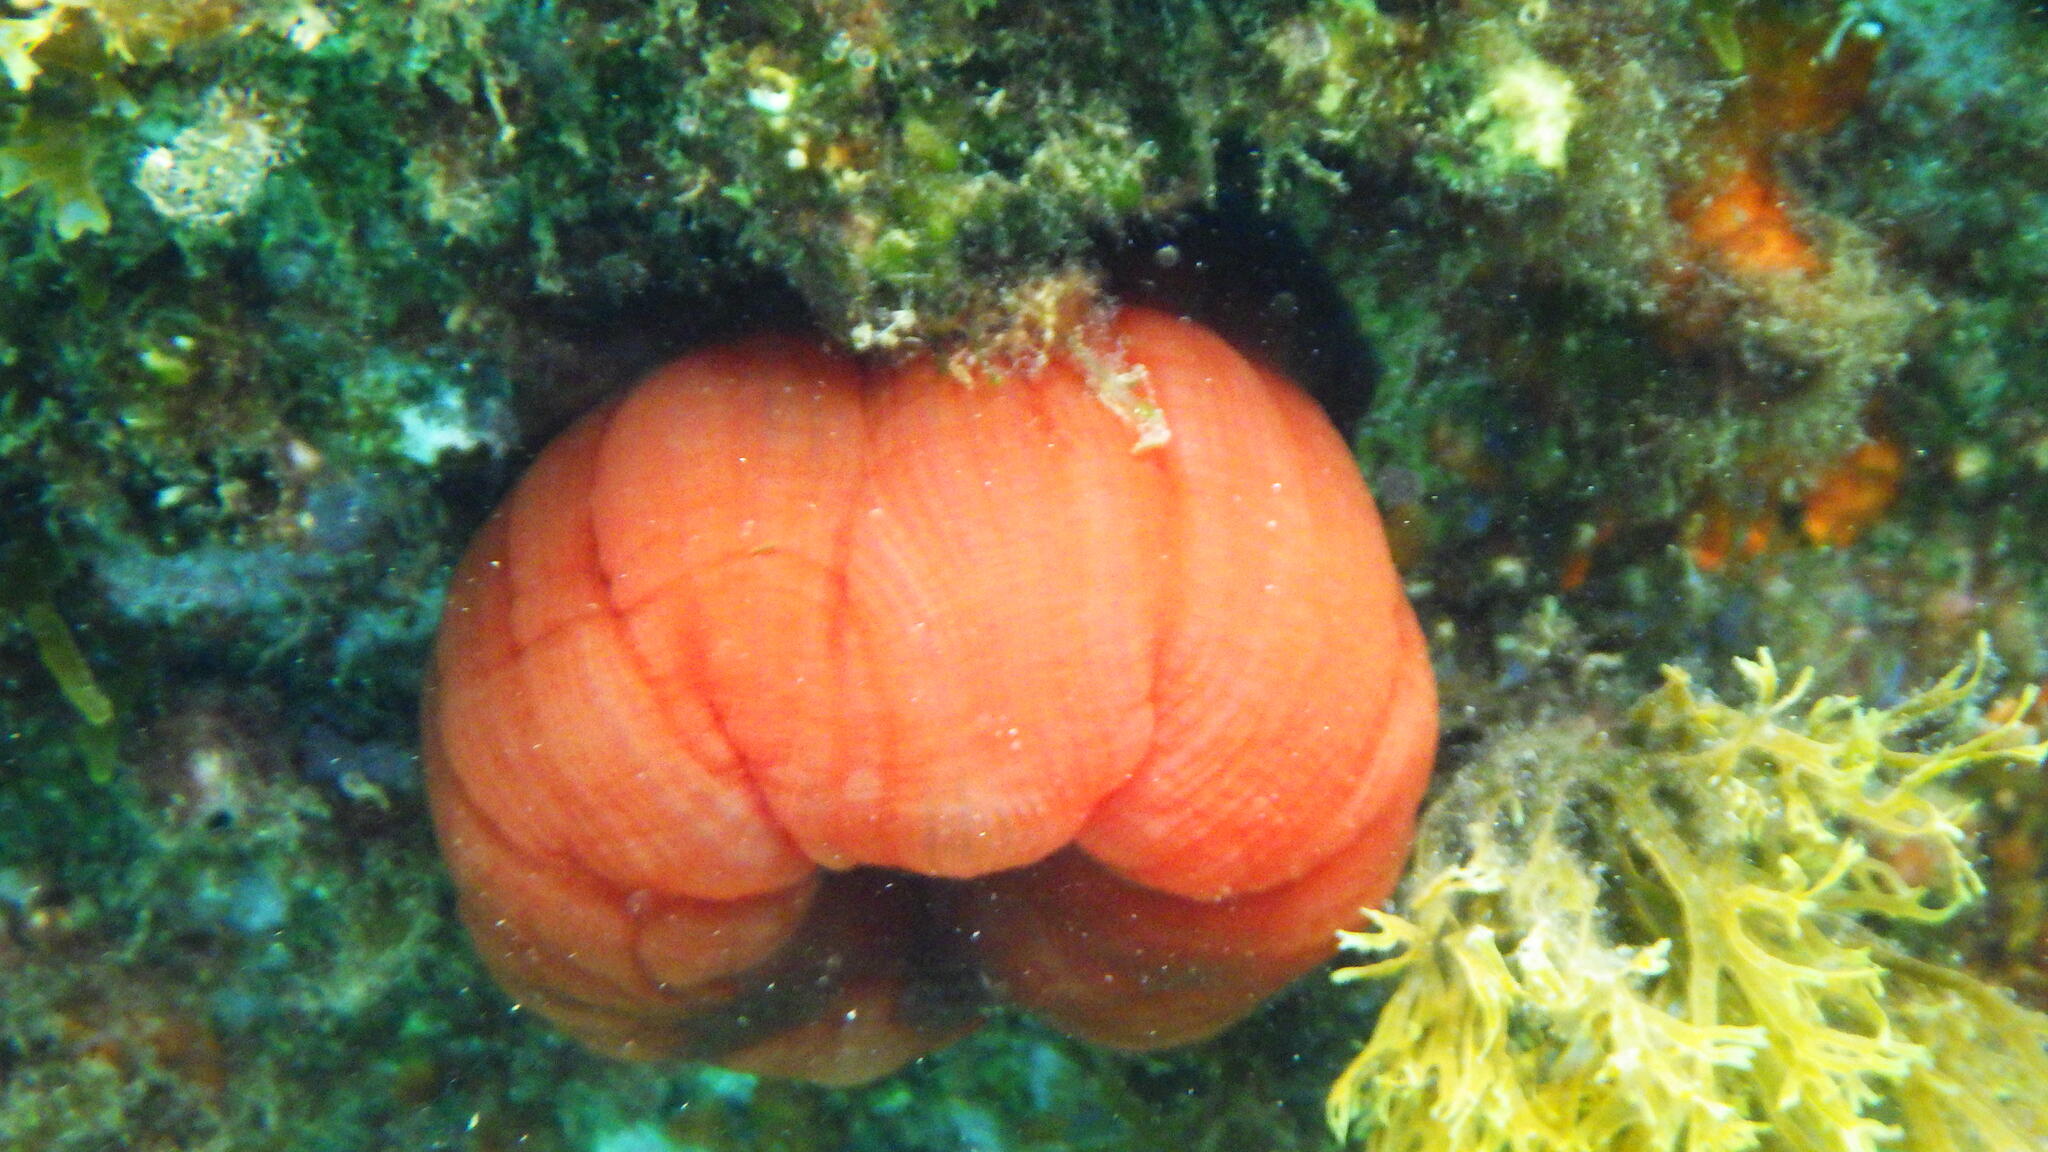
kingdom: Animalia
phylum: Cnidaria
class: Anthozoa
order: Actiniaria
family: Actiniidae
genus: Actinia
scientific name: Actinia mediterranea
